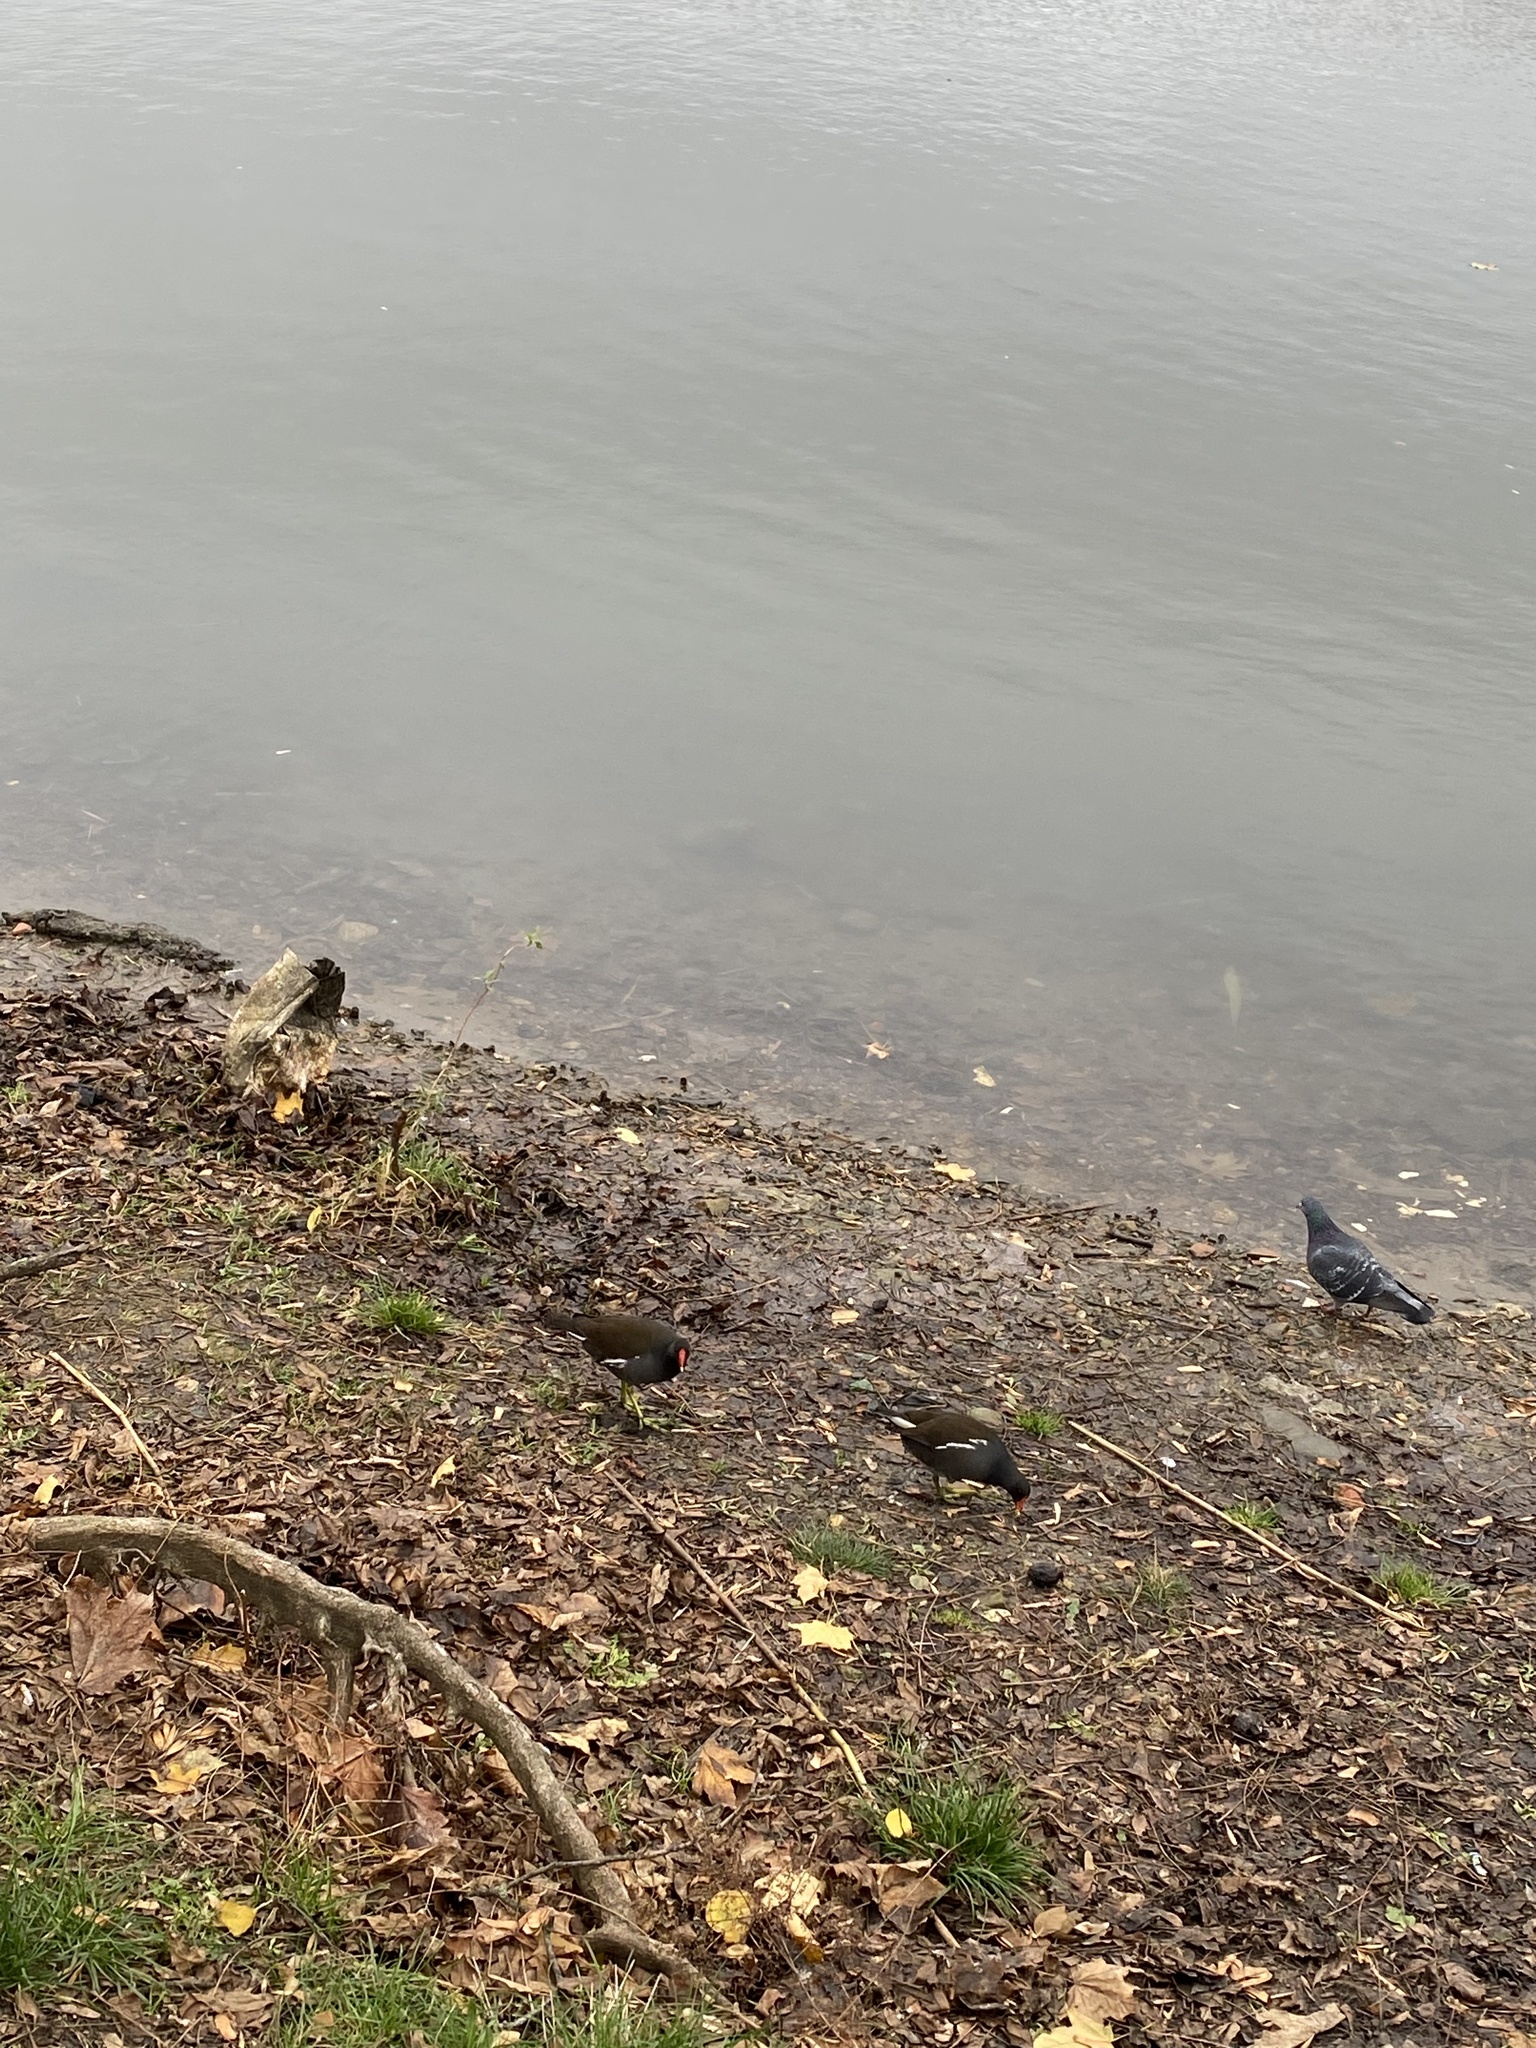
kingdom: Animalia
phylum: Chordata
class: Aves
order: Gruiformes
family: Rallidae
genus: Gallinula
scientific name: Gallinula chloropus
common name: Common moorhen
